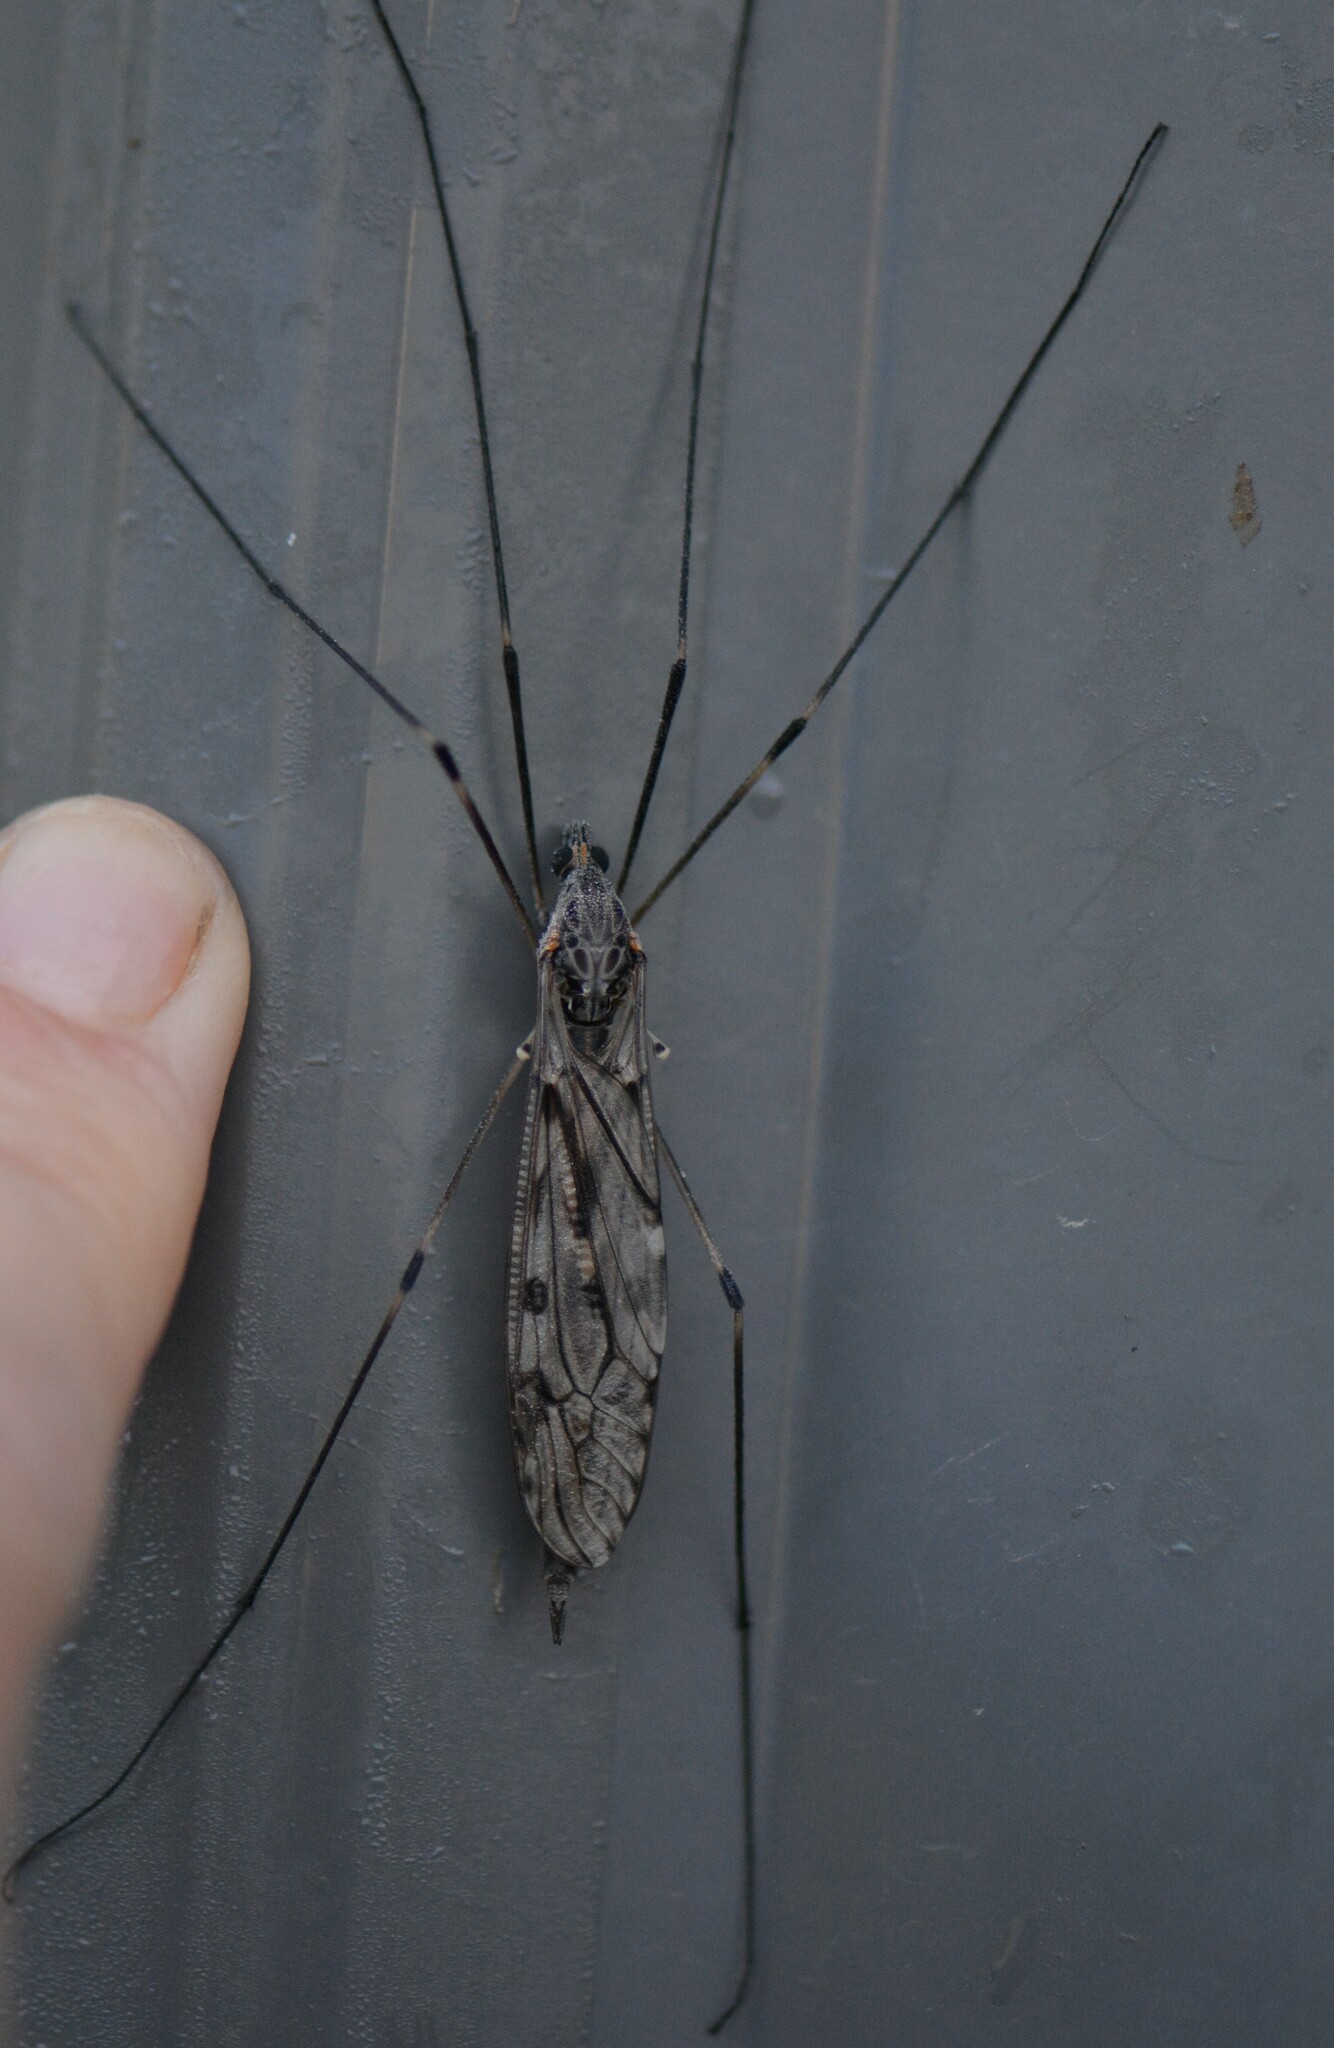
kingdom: Animalia
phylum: Arthropoda
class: Insecta
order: Diptera
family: Tipulidae
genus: Tipula
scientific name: Tipula abdominalis
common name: Giant crane fly
